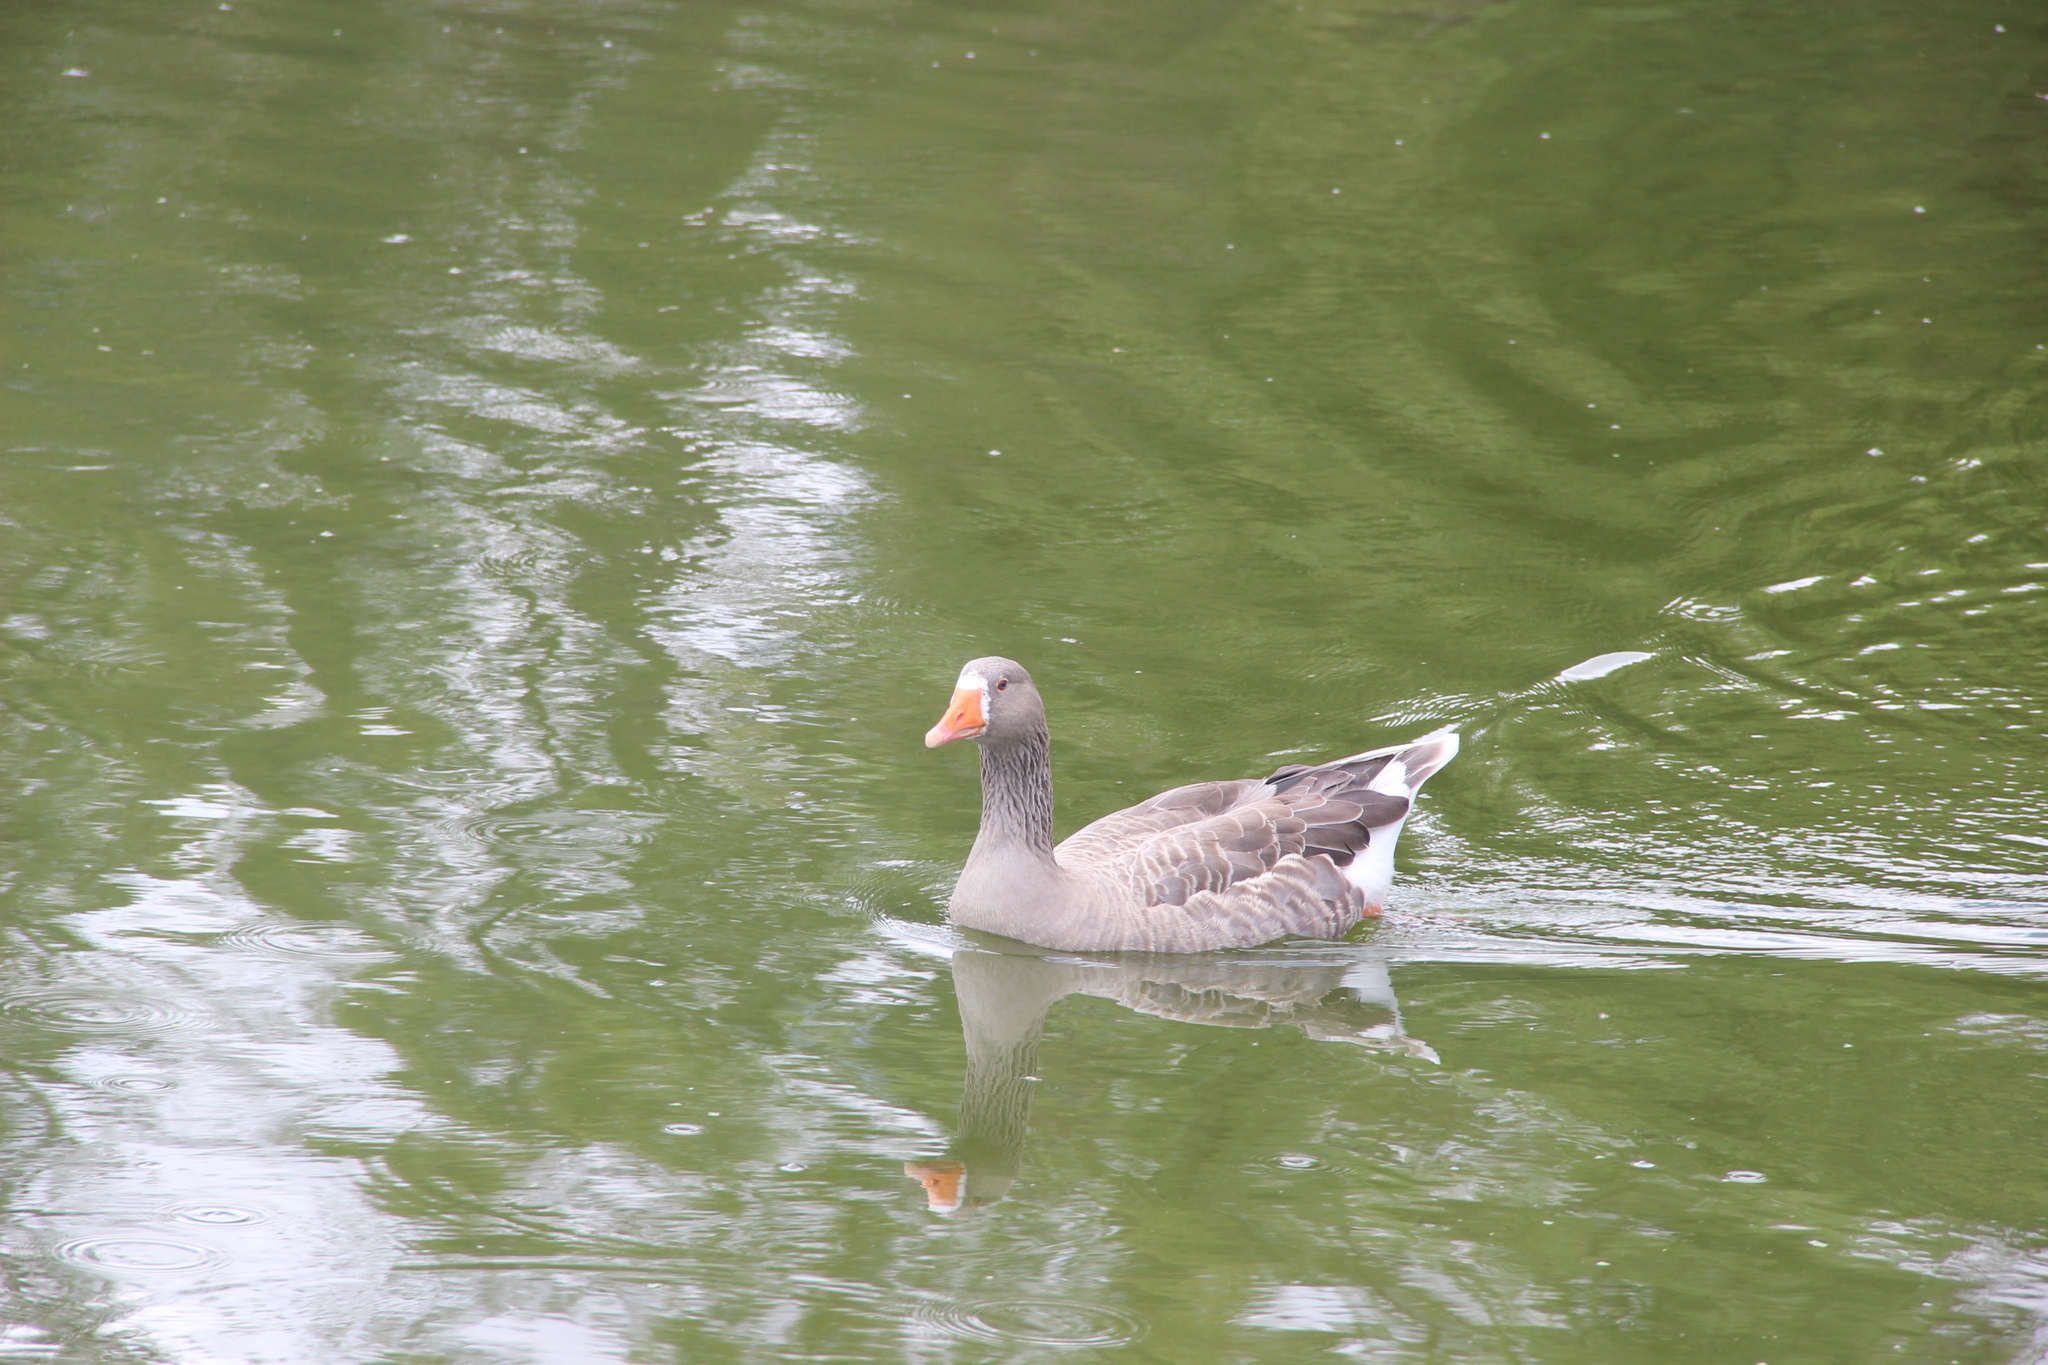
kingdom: Animalia
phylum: Chordata
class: Aves
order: Anseriformes
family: Anatidae
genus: Anser
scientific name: Anser anser
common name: Greylag goose
